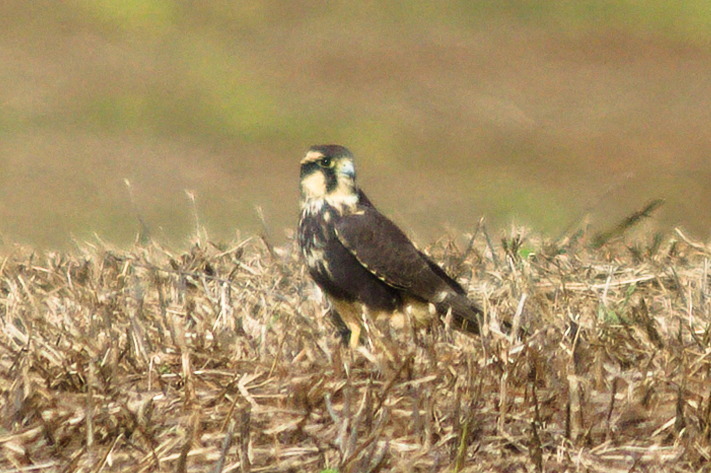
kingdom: Animalia
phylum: Chordata
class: Aves
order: Falconiformes
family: Falconidae
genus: Falco
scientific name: Falco femoralis
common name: Aplomado falcon
